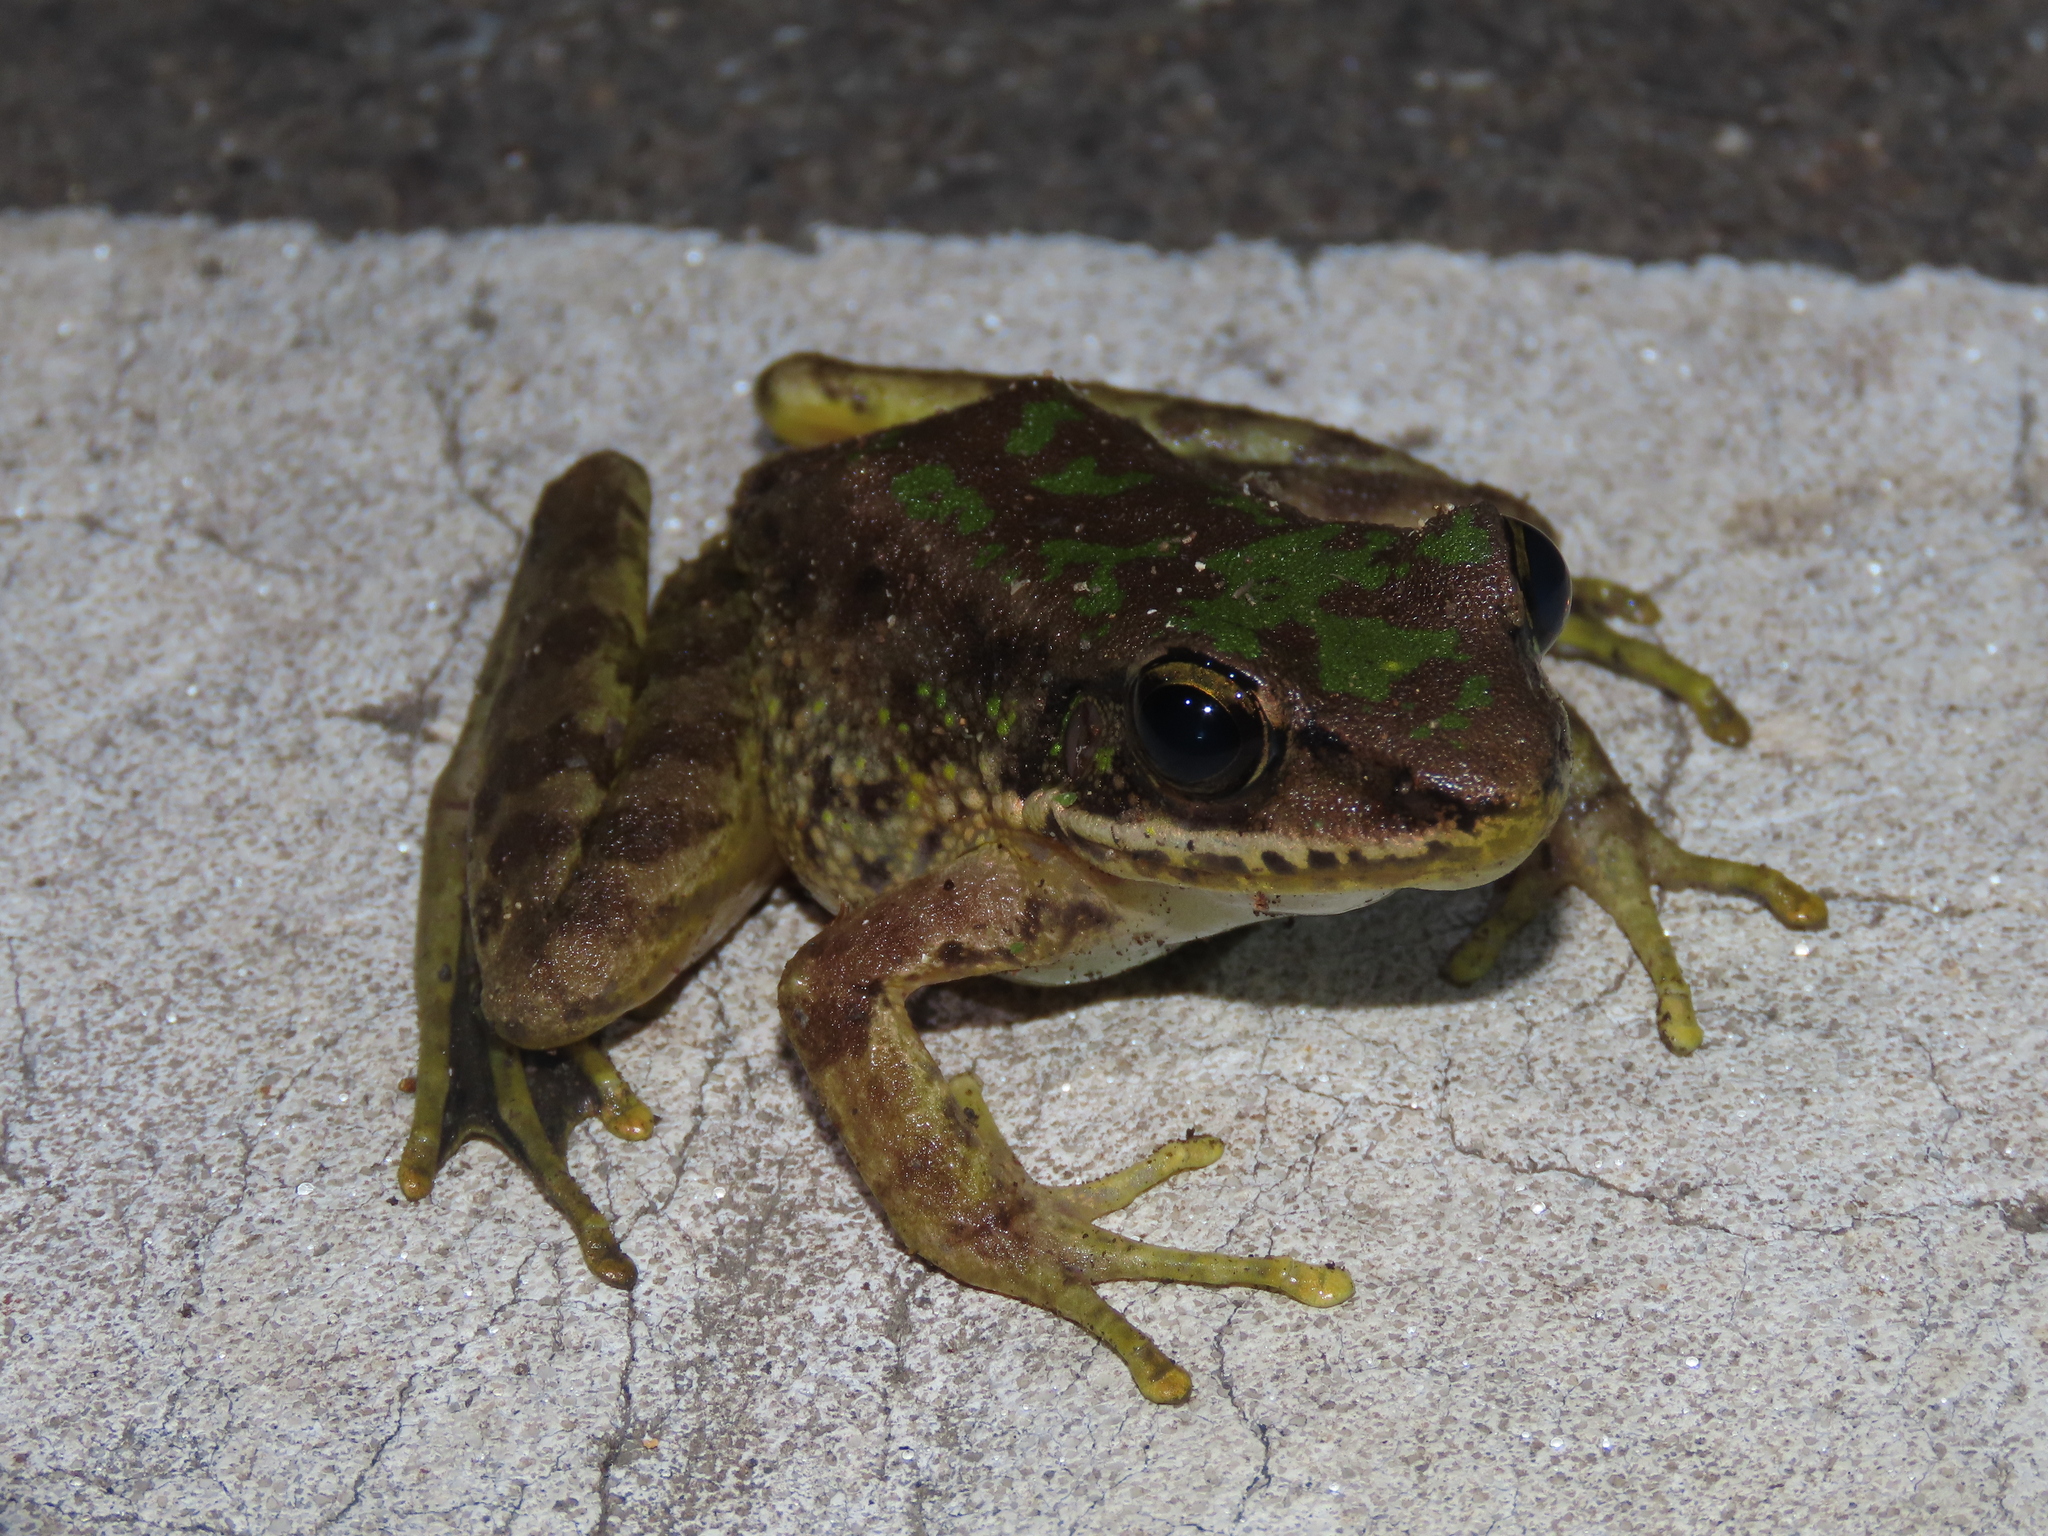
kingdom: Animalia
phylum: Chordata
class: Amphibia
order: Anura
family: Ranidae
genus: Odorrana
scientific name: Odorrana swinhoana
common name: Bangkimtsing frog
